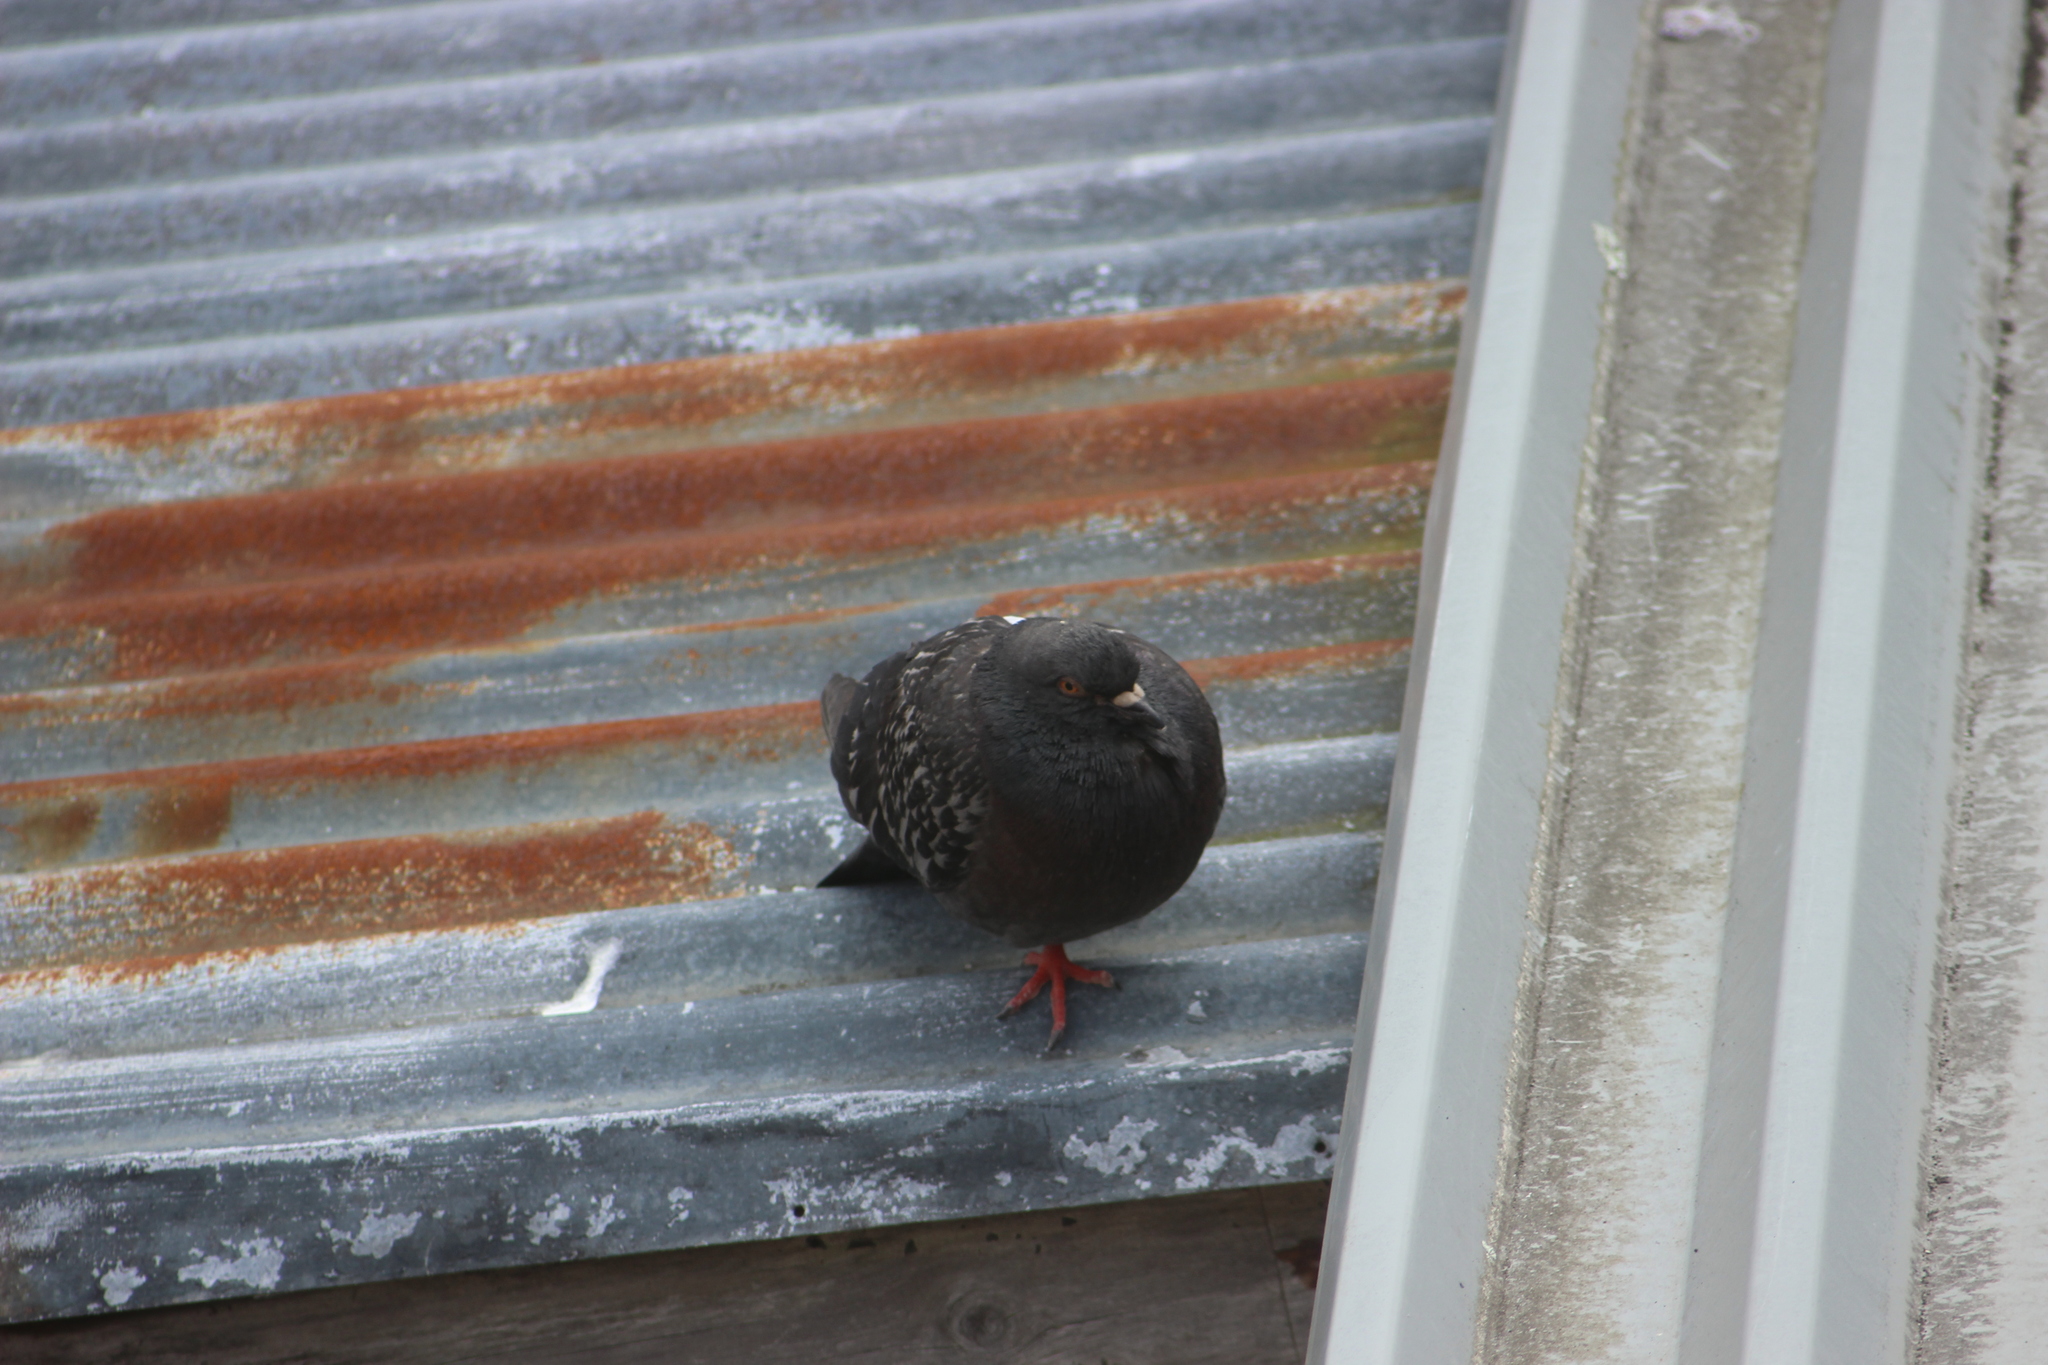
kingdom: Animalia
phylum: Chordata
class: Aves
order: Columbiformes
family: Columbidae
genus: Columba
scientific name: Columba livia
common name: Rock pigeon
